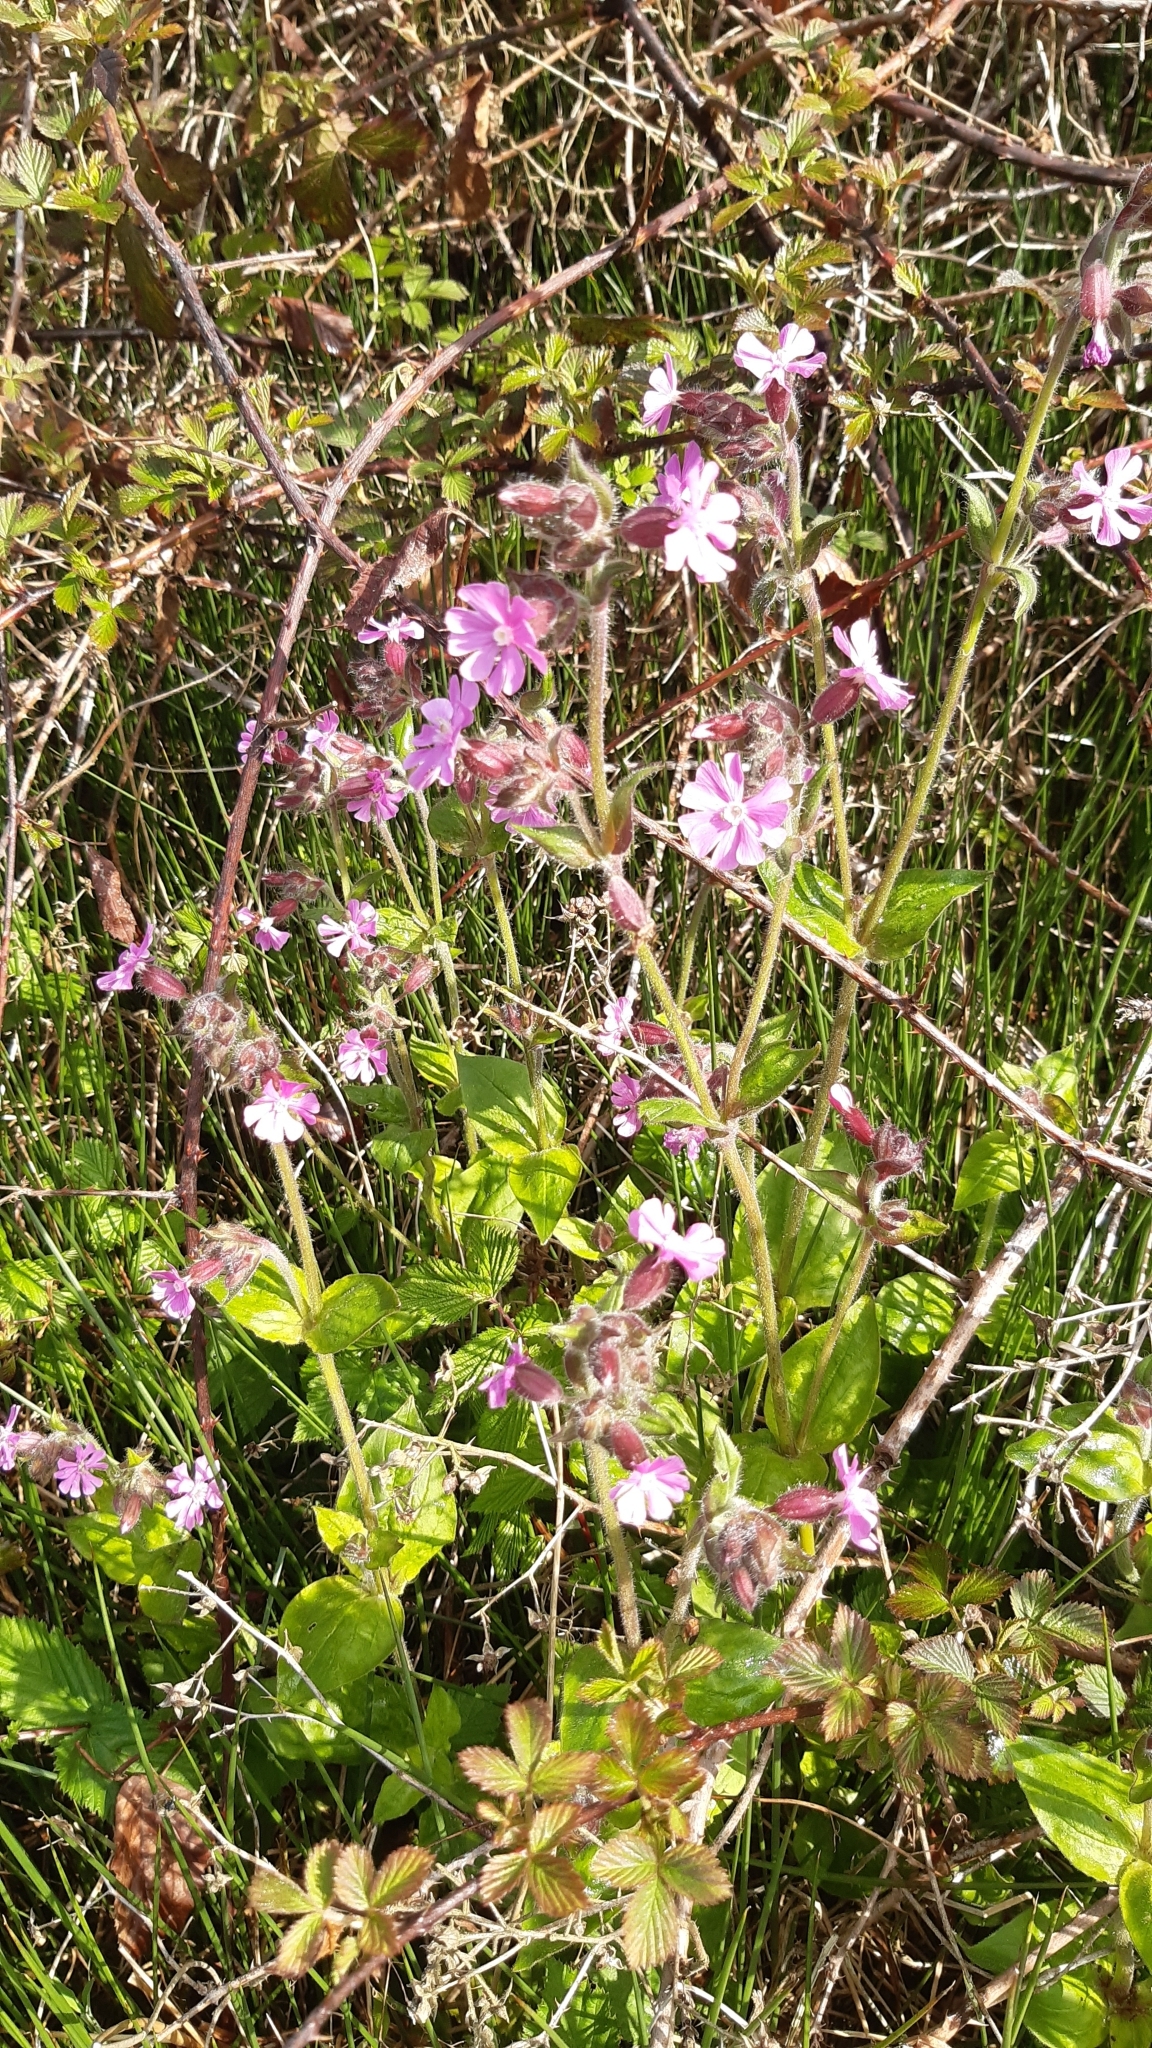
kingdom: Plantae
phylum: Tracheophyta
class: Magnoliopsida
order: Caryophyllales
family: Caryophyllaceae
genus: Silene
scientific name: Silene dioica
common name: Red campion
